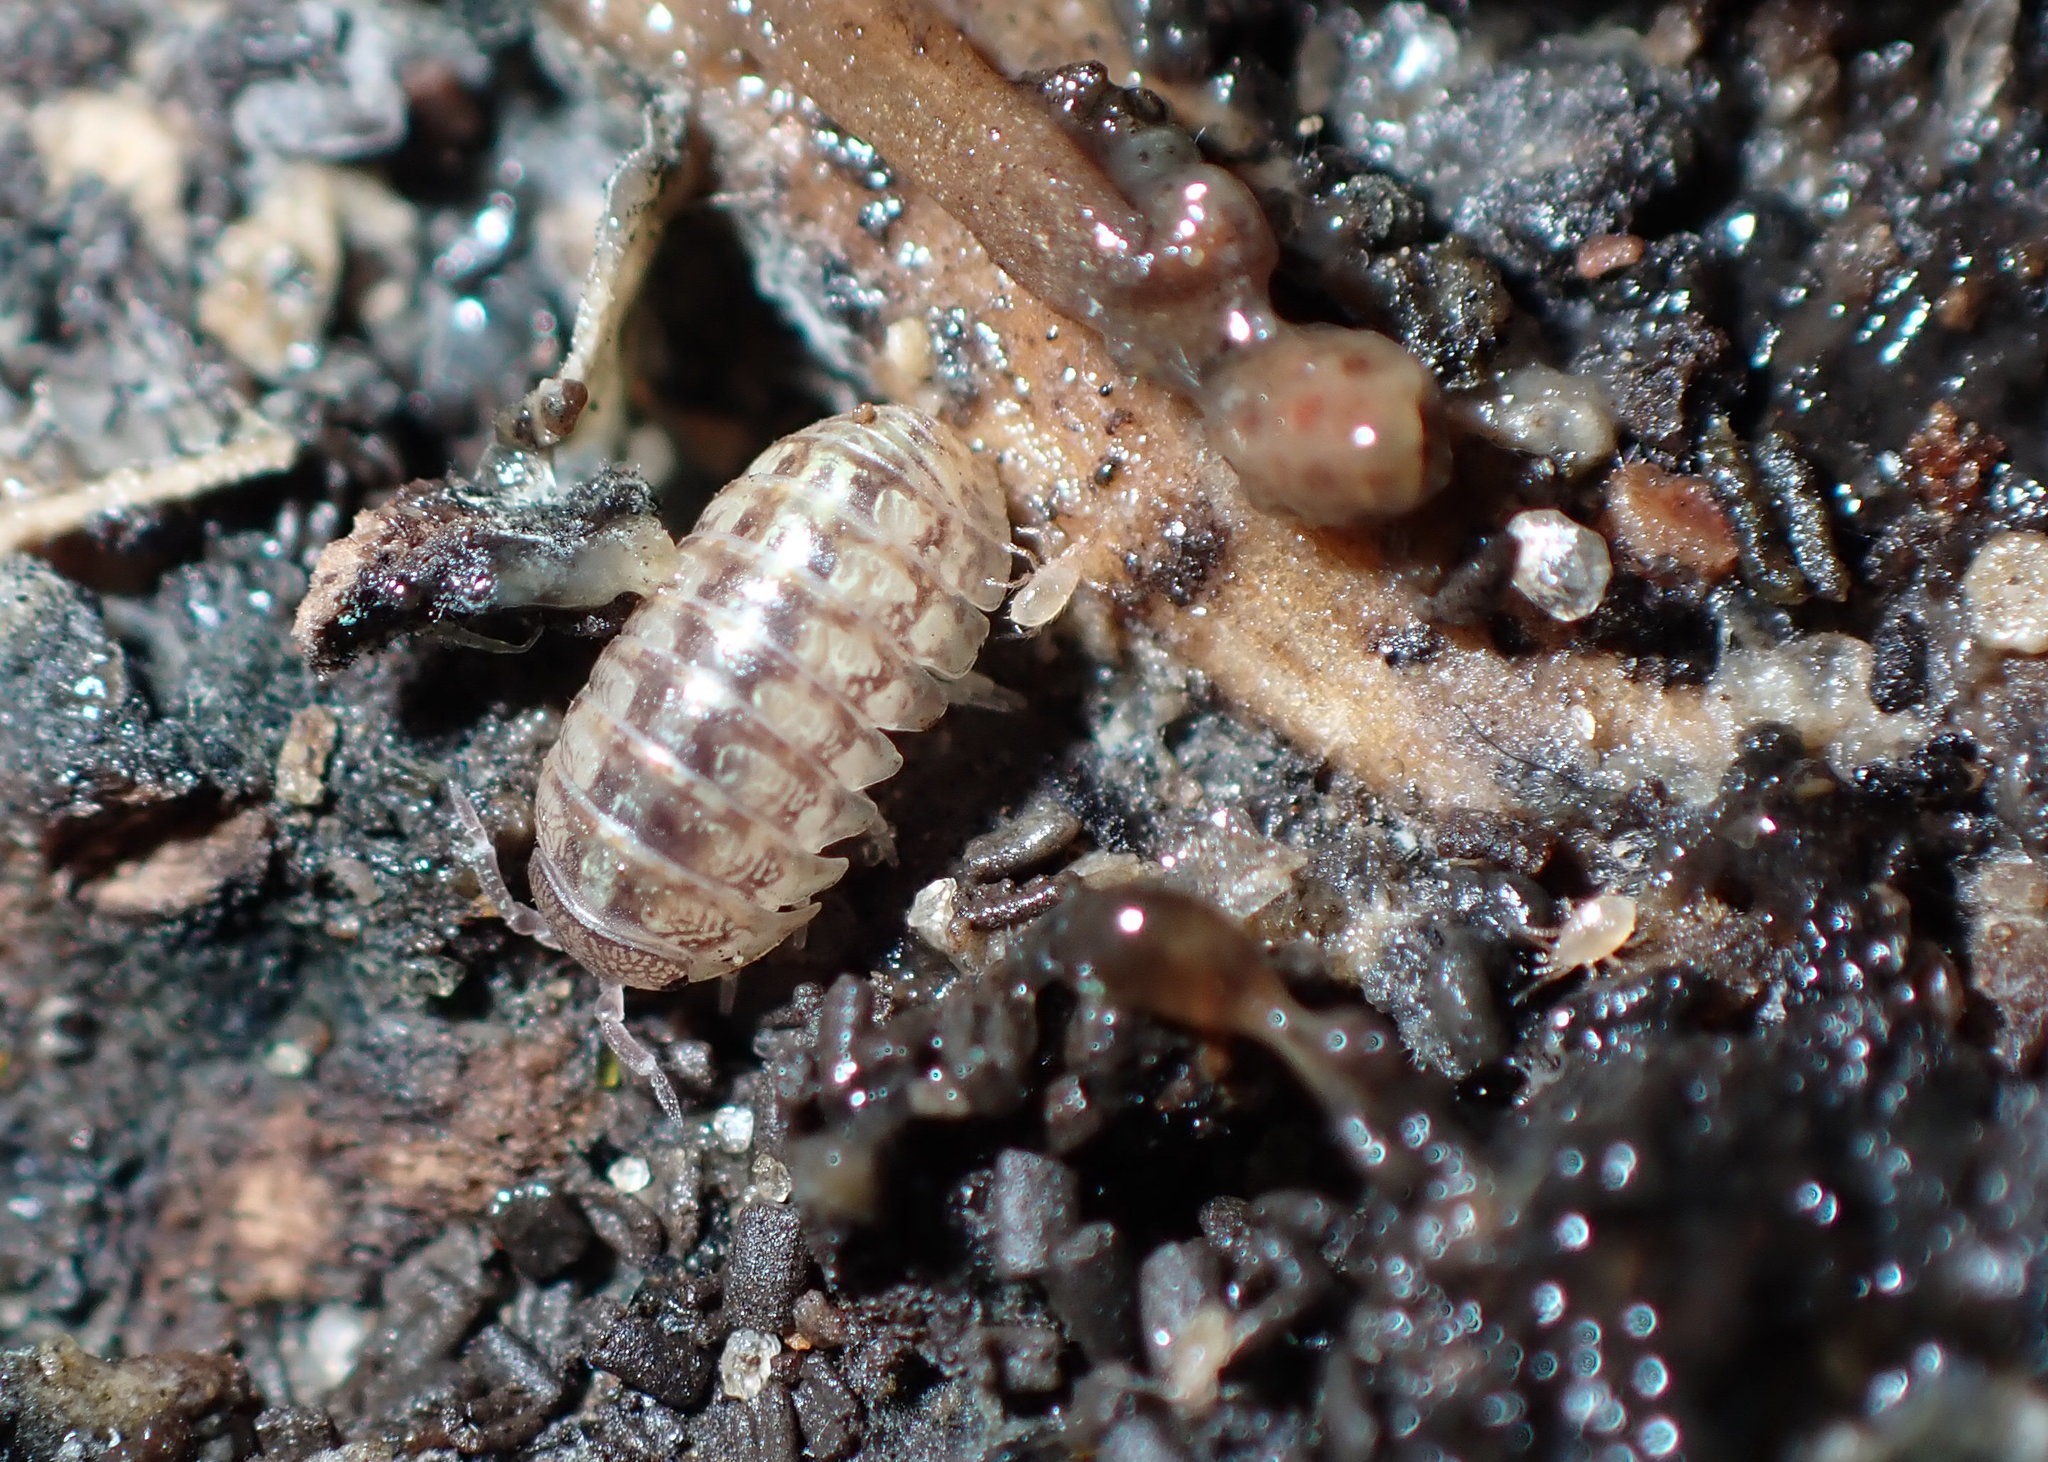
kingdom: Animalia
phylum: Arthropoda
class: Malacostraca
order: Isopoda
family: Armadillidiidae
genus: Armadillidium
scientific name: Armadillidium vulgare
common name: Common pill woodlouse
